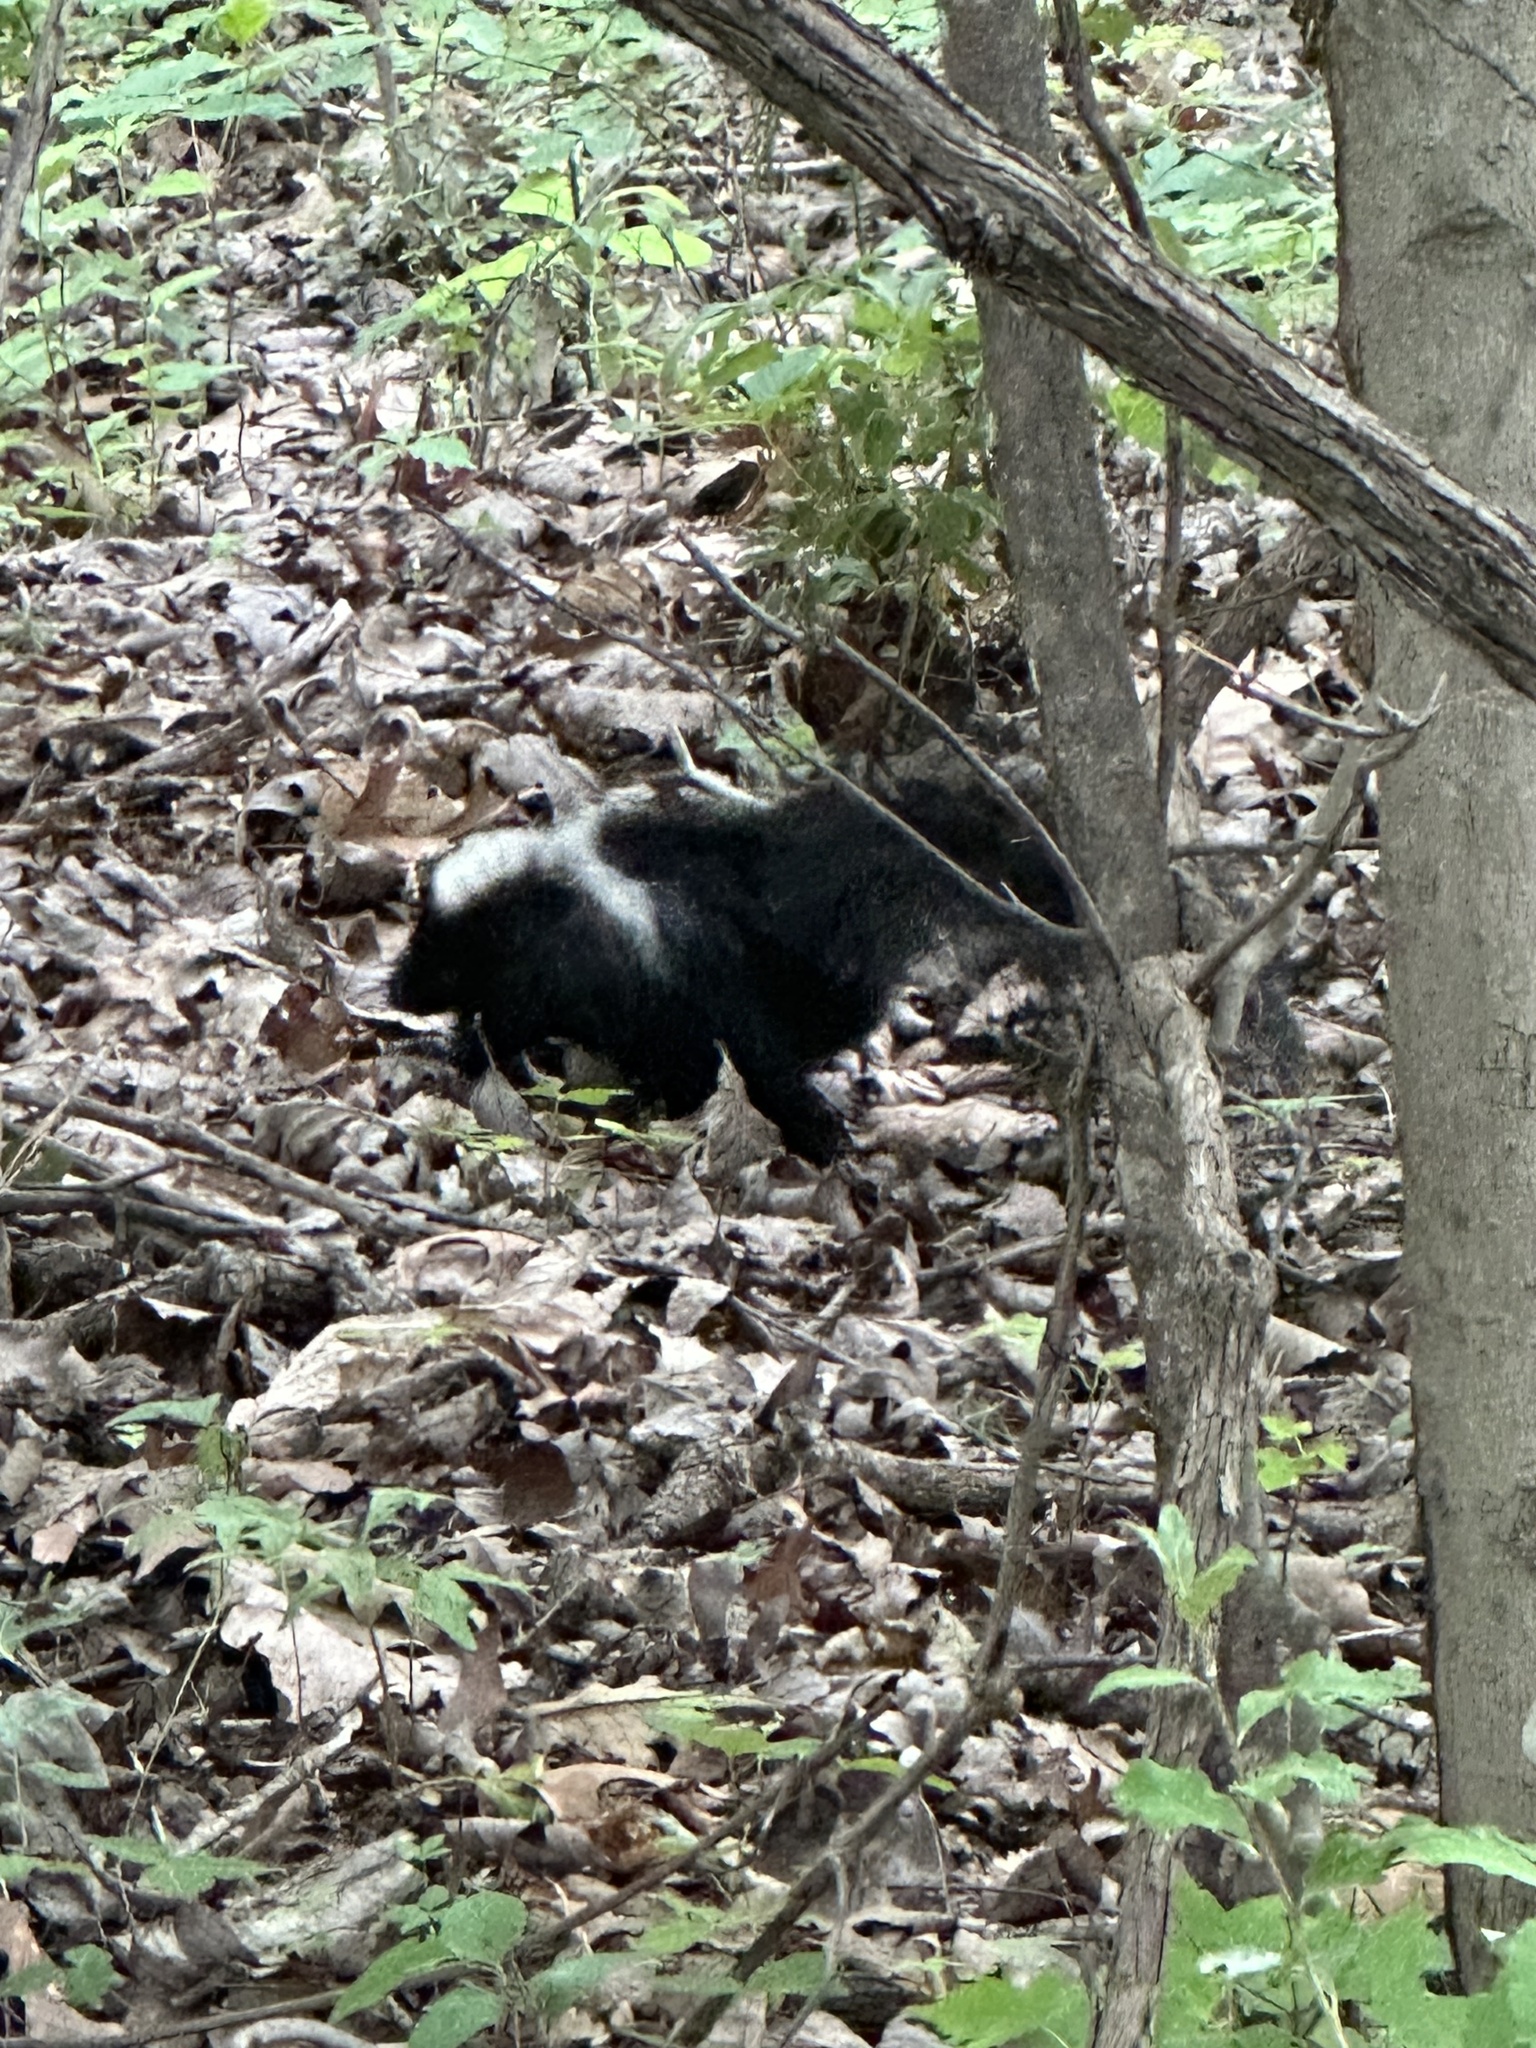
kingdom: Animalia
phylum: Chordata
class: Mammalia
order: Carnivora
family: Mephitidae
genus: Mephitis
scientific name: Mephitis mephitis
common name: Striped skunk
